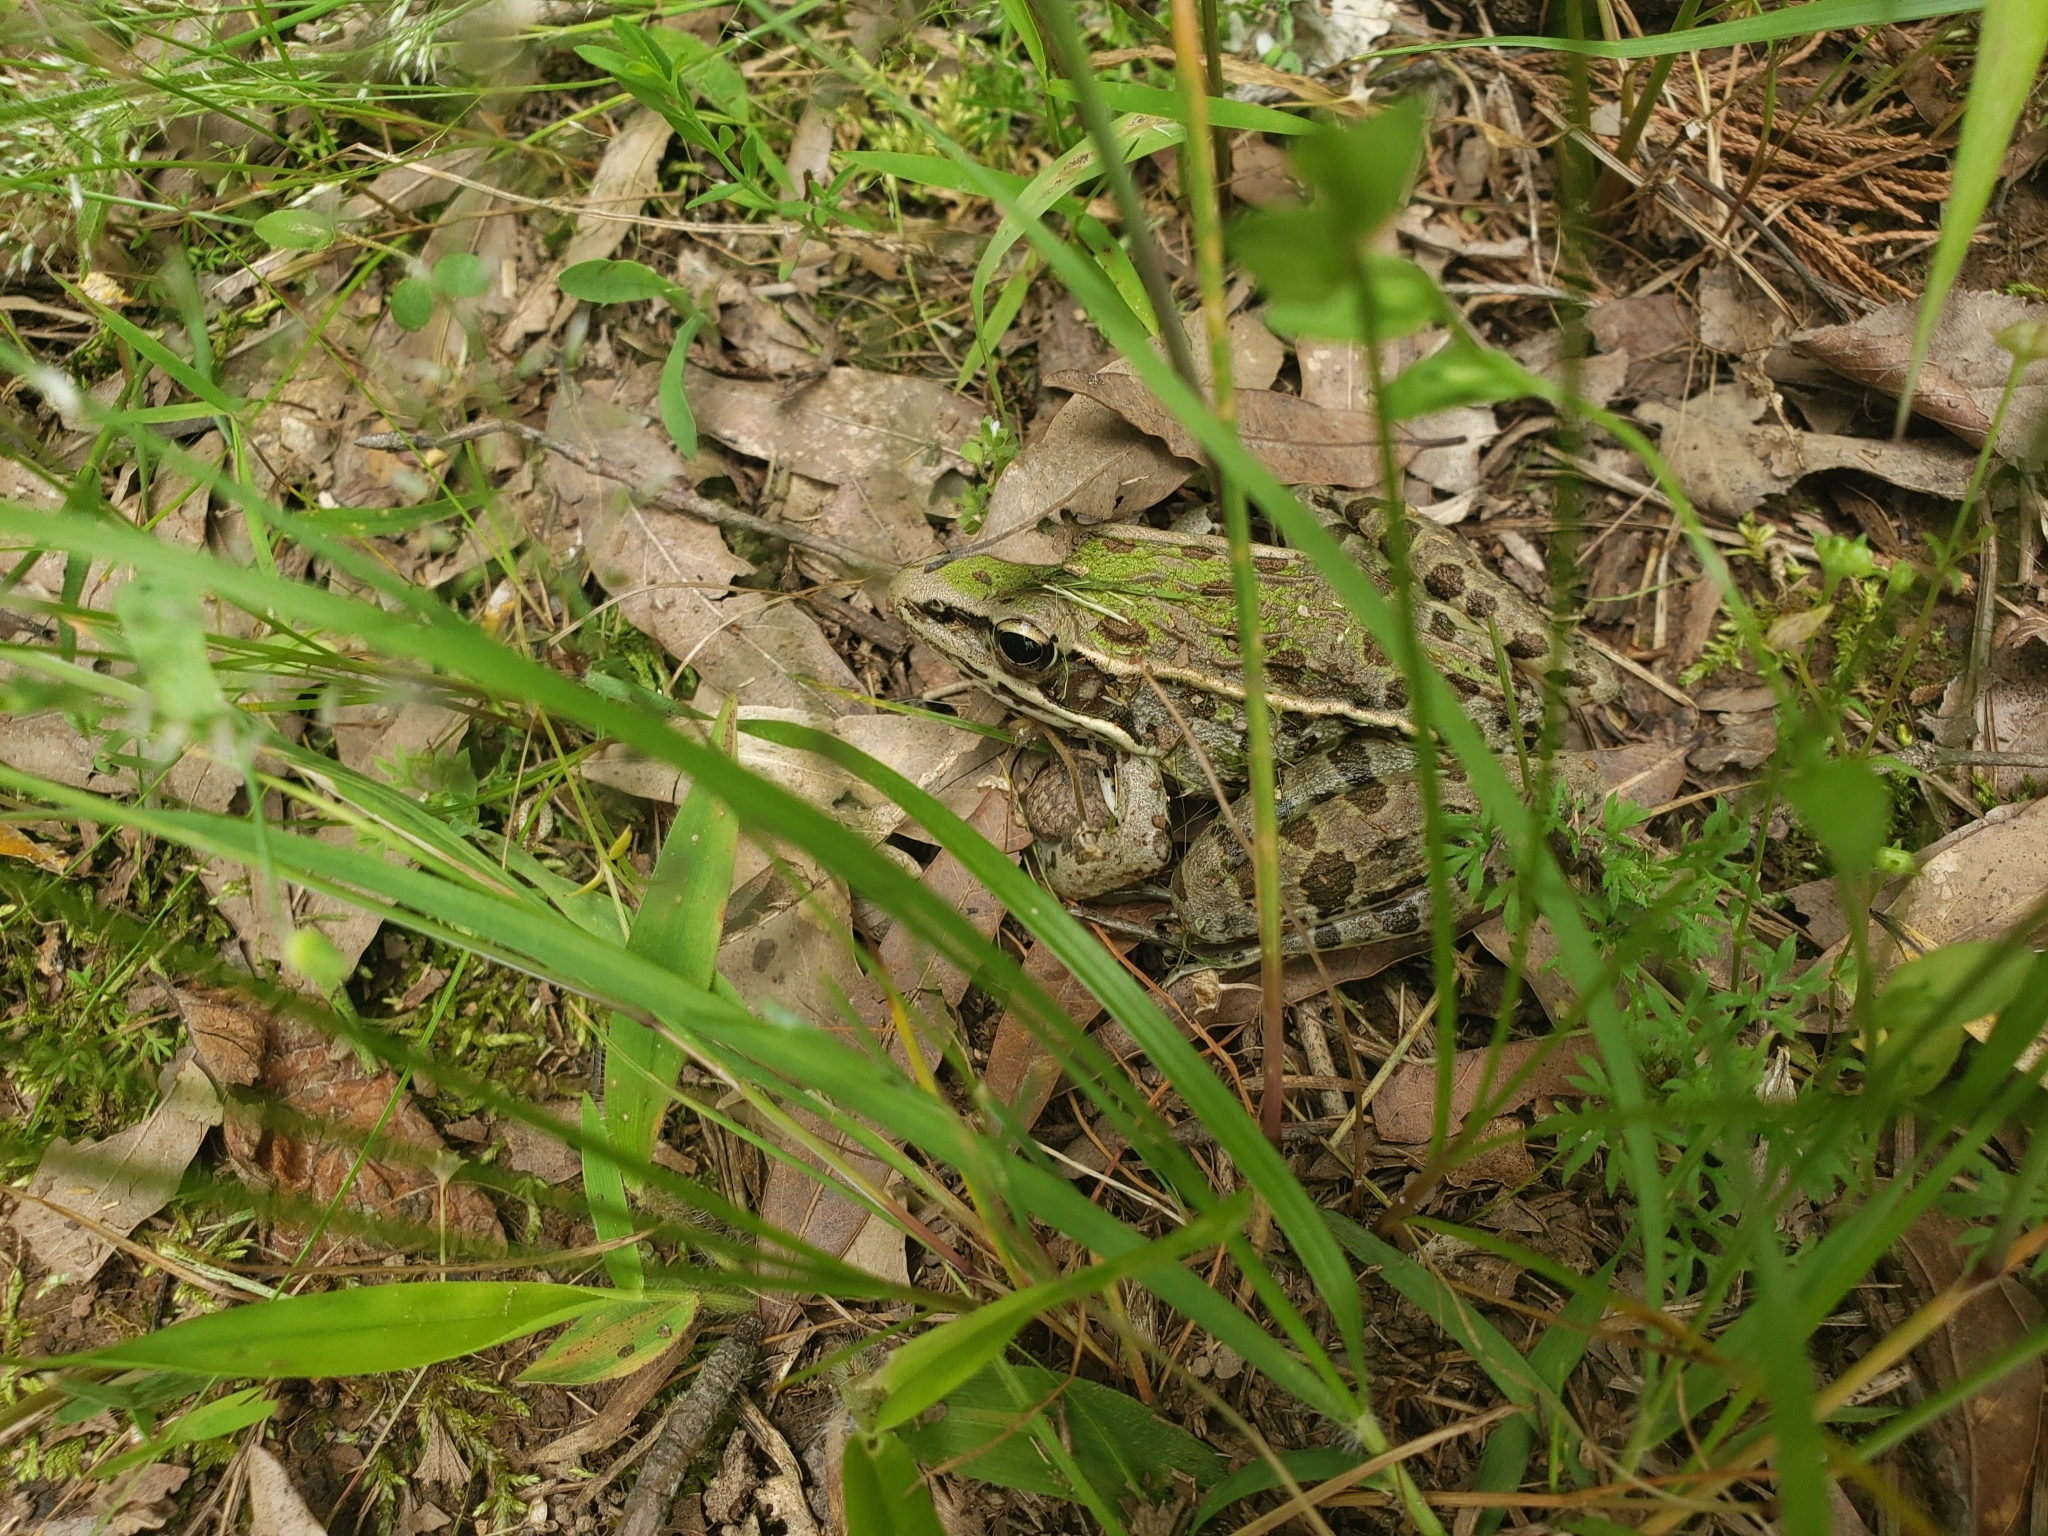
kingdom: Animalia
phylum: Chordata
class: Amphibia
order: Anura
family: Ranidae
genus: Lithobates
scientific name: Lithobates sphenocephalus
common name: Southern leopard frog
